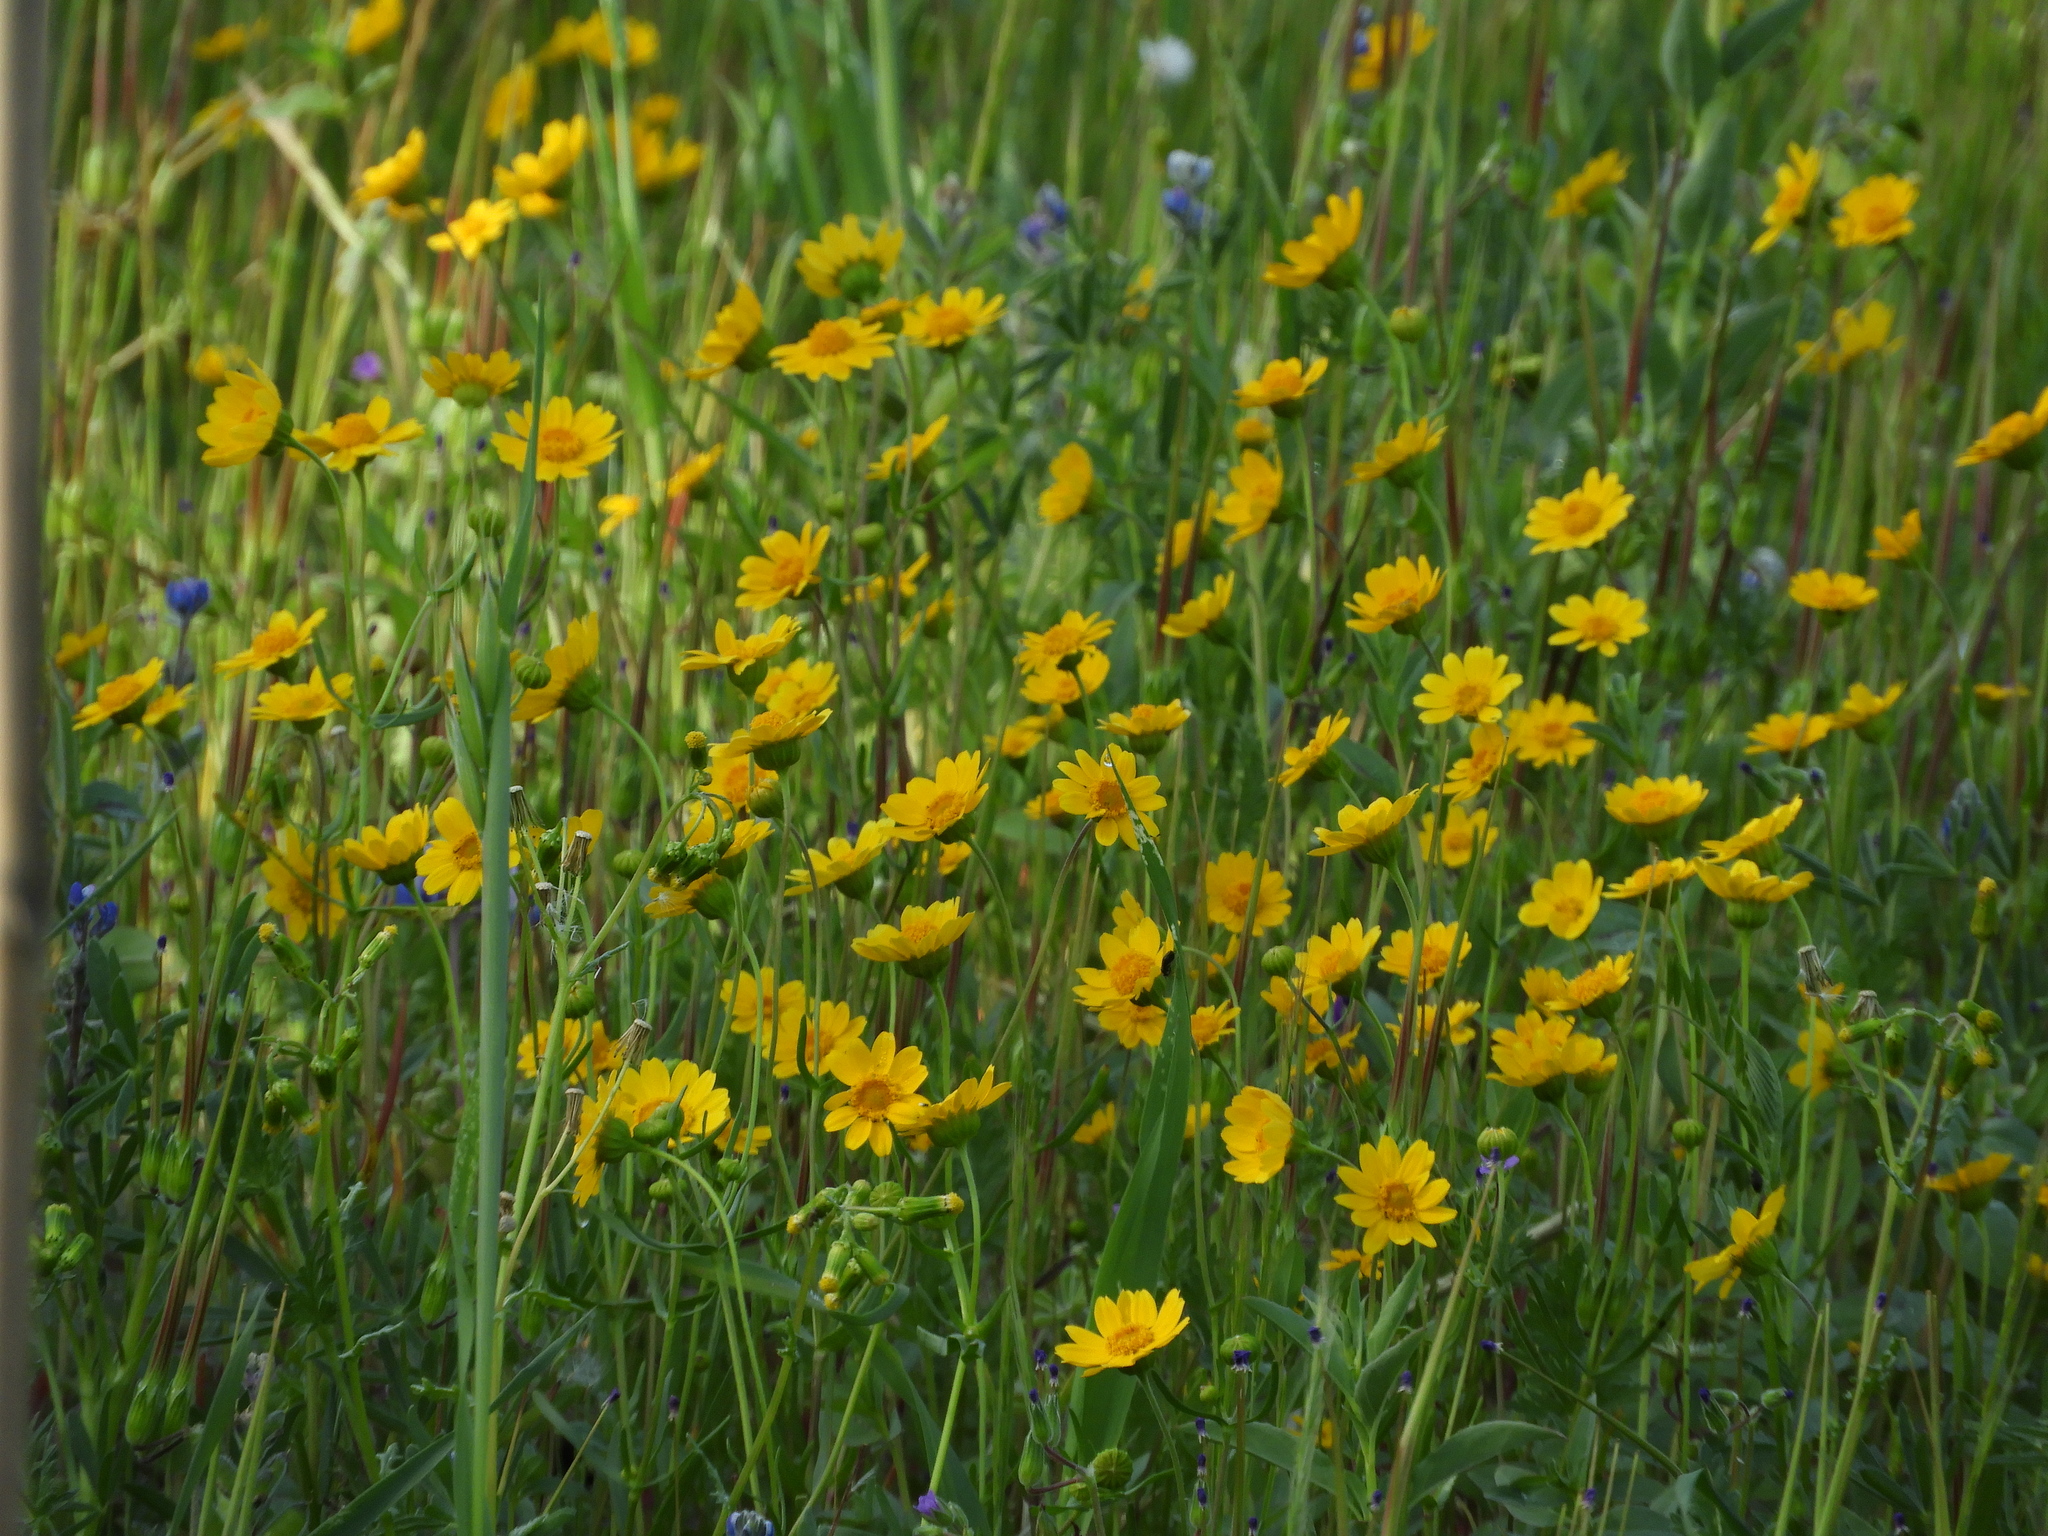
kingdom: Plantae
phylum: Tracheophyta
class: Magnoliopsida
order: Asterales
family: Asteraceae
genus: Lasthenia
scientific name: Lasthenia californica
